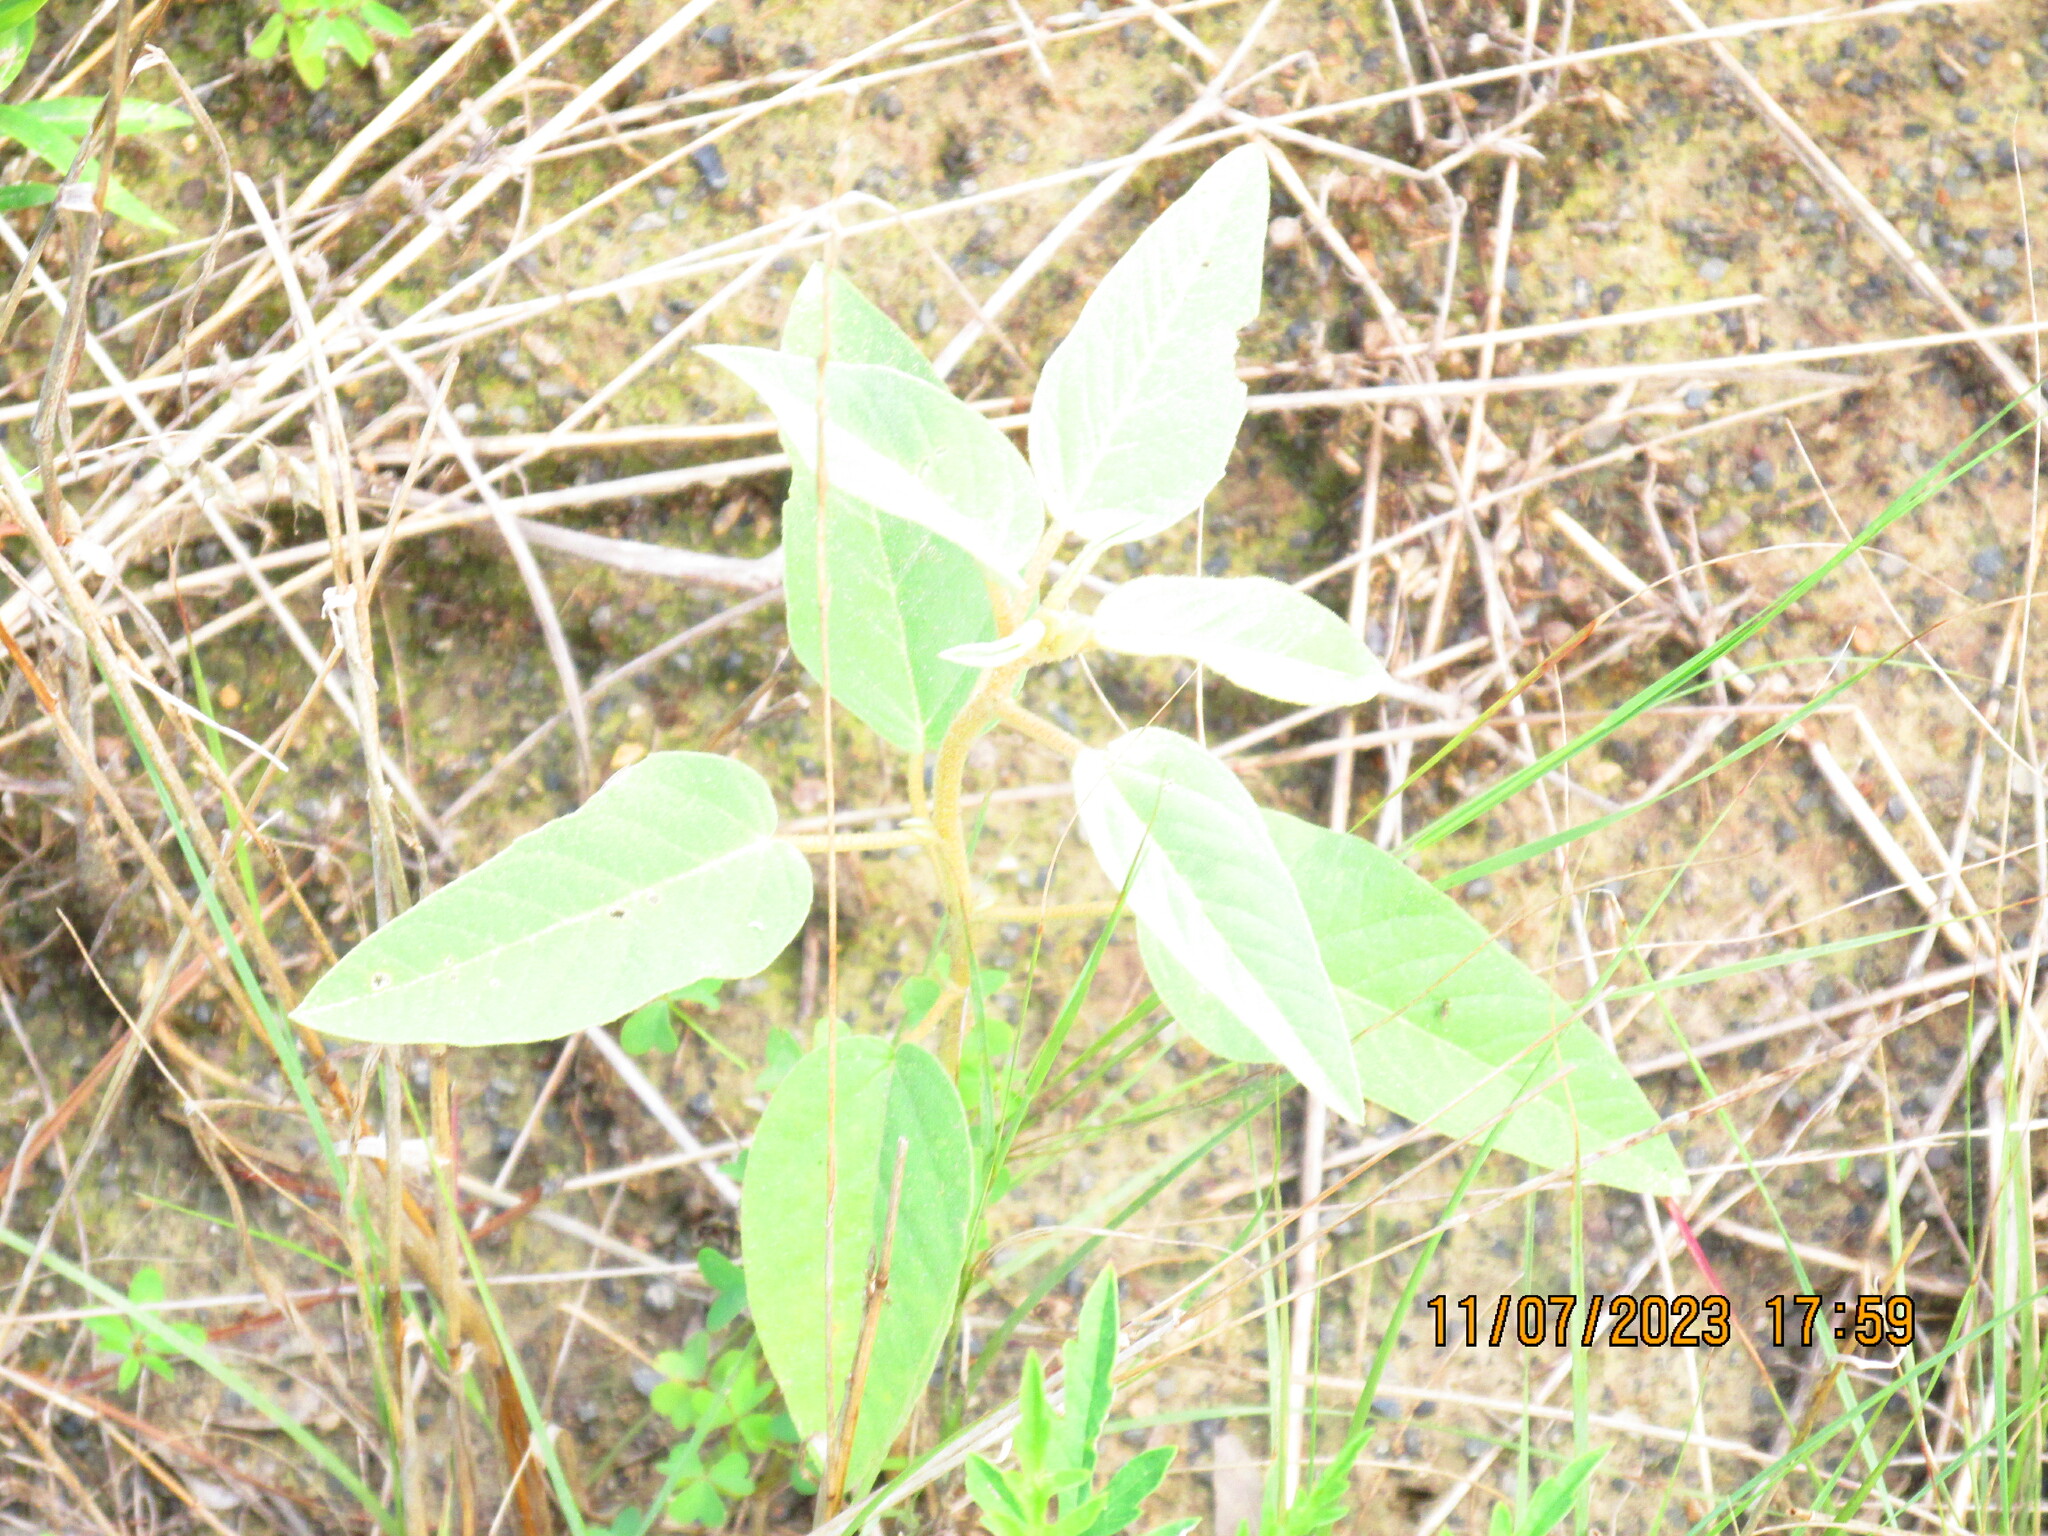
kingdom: Plantae
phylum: Tracheophyta
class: Magnoliopsida
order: Malpighiales
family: Euphorbiaceae
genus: Croton
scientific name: Croton lindheimeri
